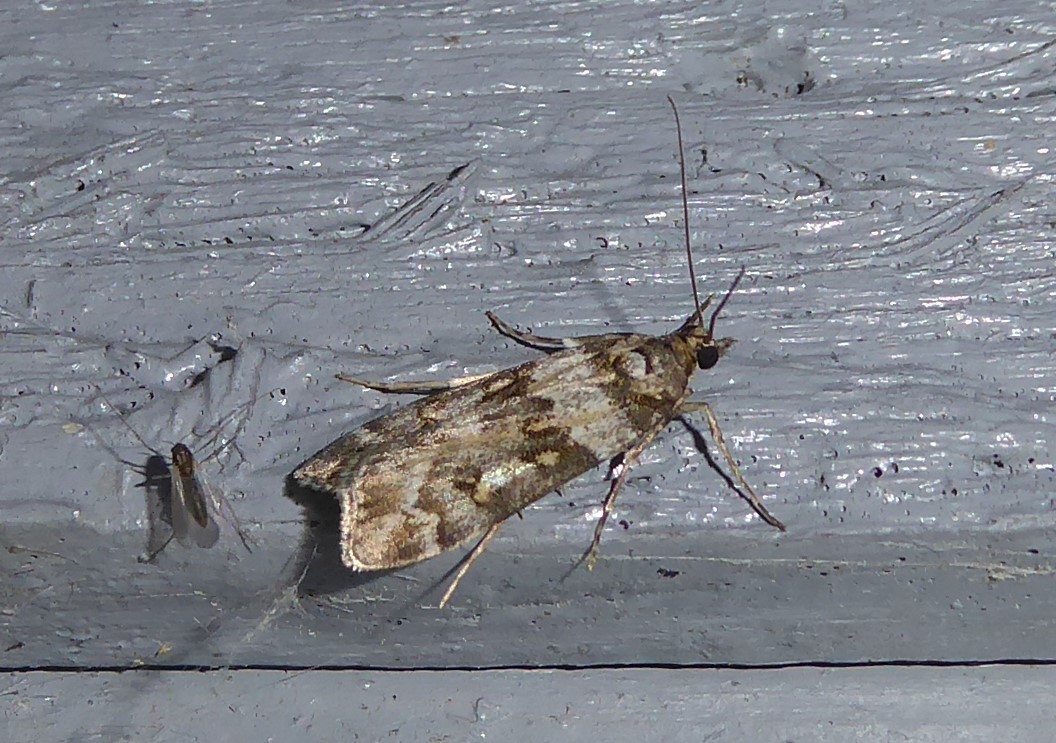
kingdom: Animalia
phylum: Arthropoda
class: Insecta
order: Lepidoptera
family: Crambidae
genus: Eudonia
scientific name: Eudonia diphtheralis
